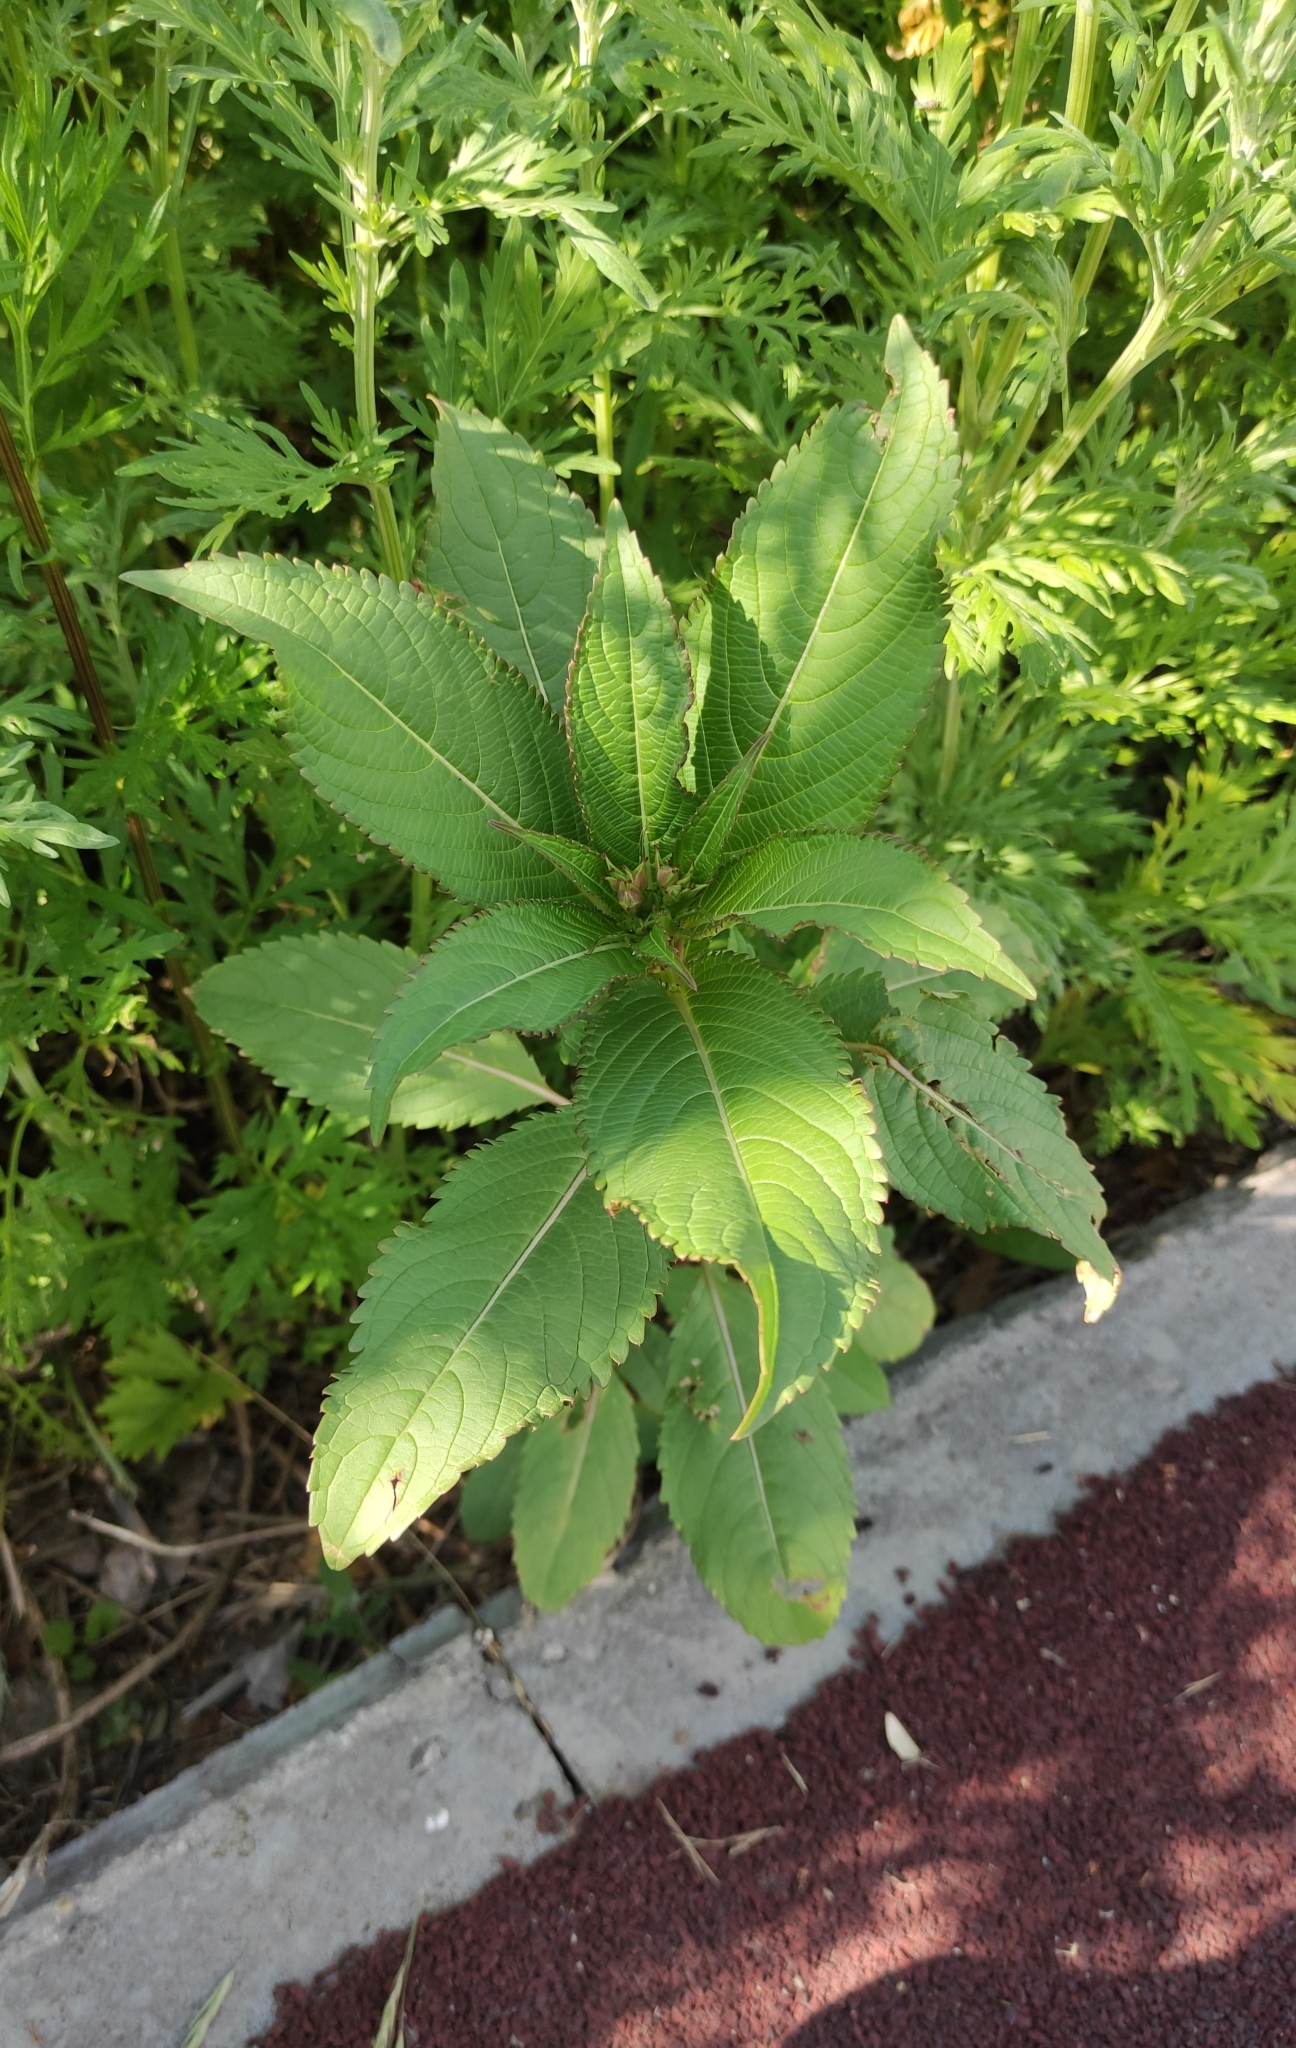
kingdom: Plantae
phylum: Tracheophyta
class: Magnoliopsida
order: Ericales
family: Balsaminaceae
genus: Impatiens
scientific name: Impatiens glandulifera
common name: Himalayan balsam
